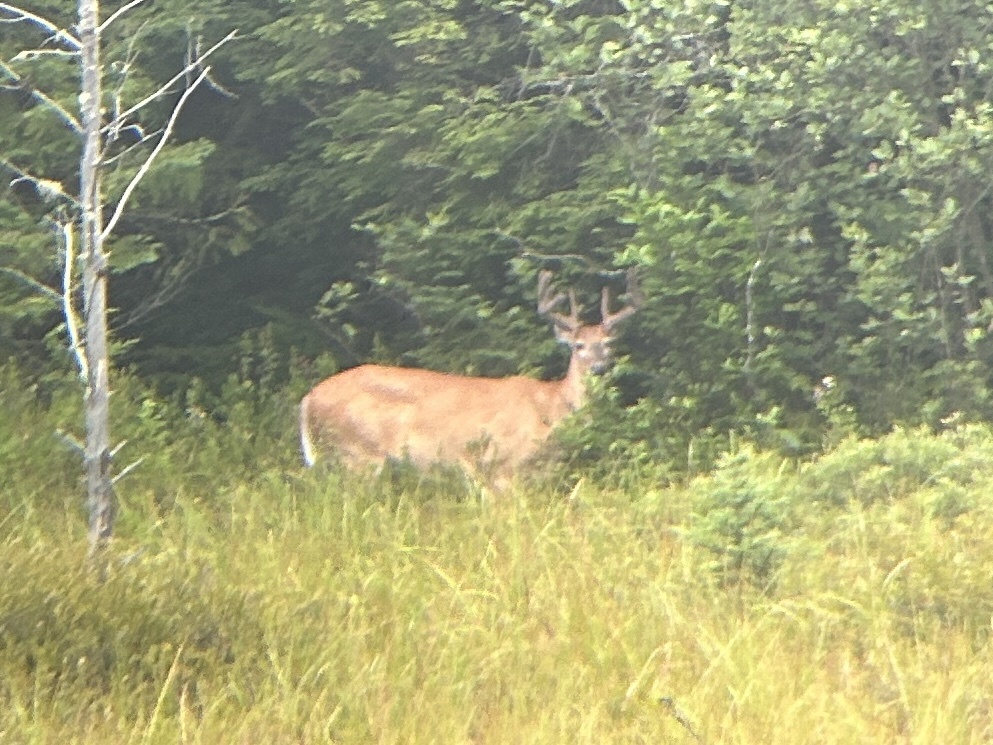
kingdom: Animalia
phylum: Chordata
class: Mammalia
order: Artiodactyla
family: Cervidae
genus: Odocoileus
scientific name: Odocoileus virginianus
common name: White-tailed deer
